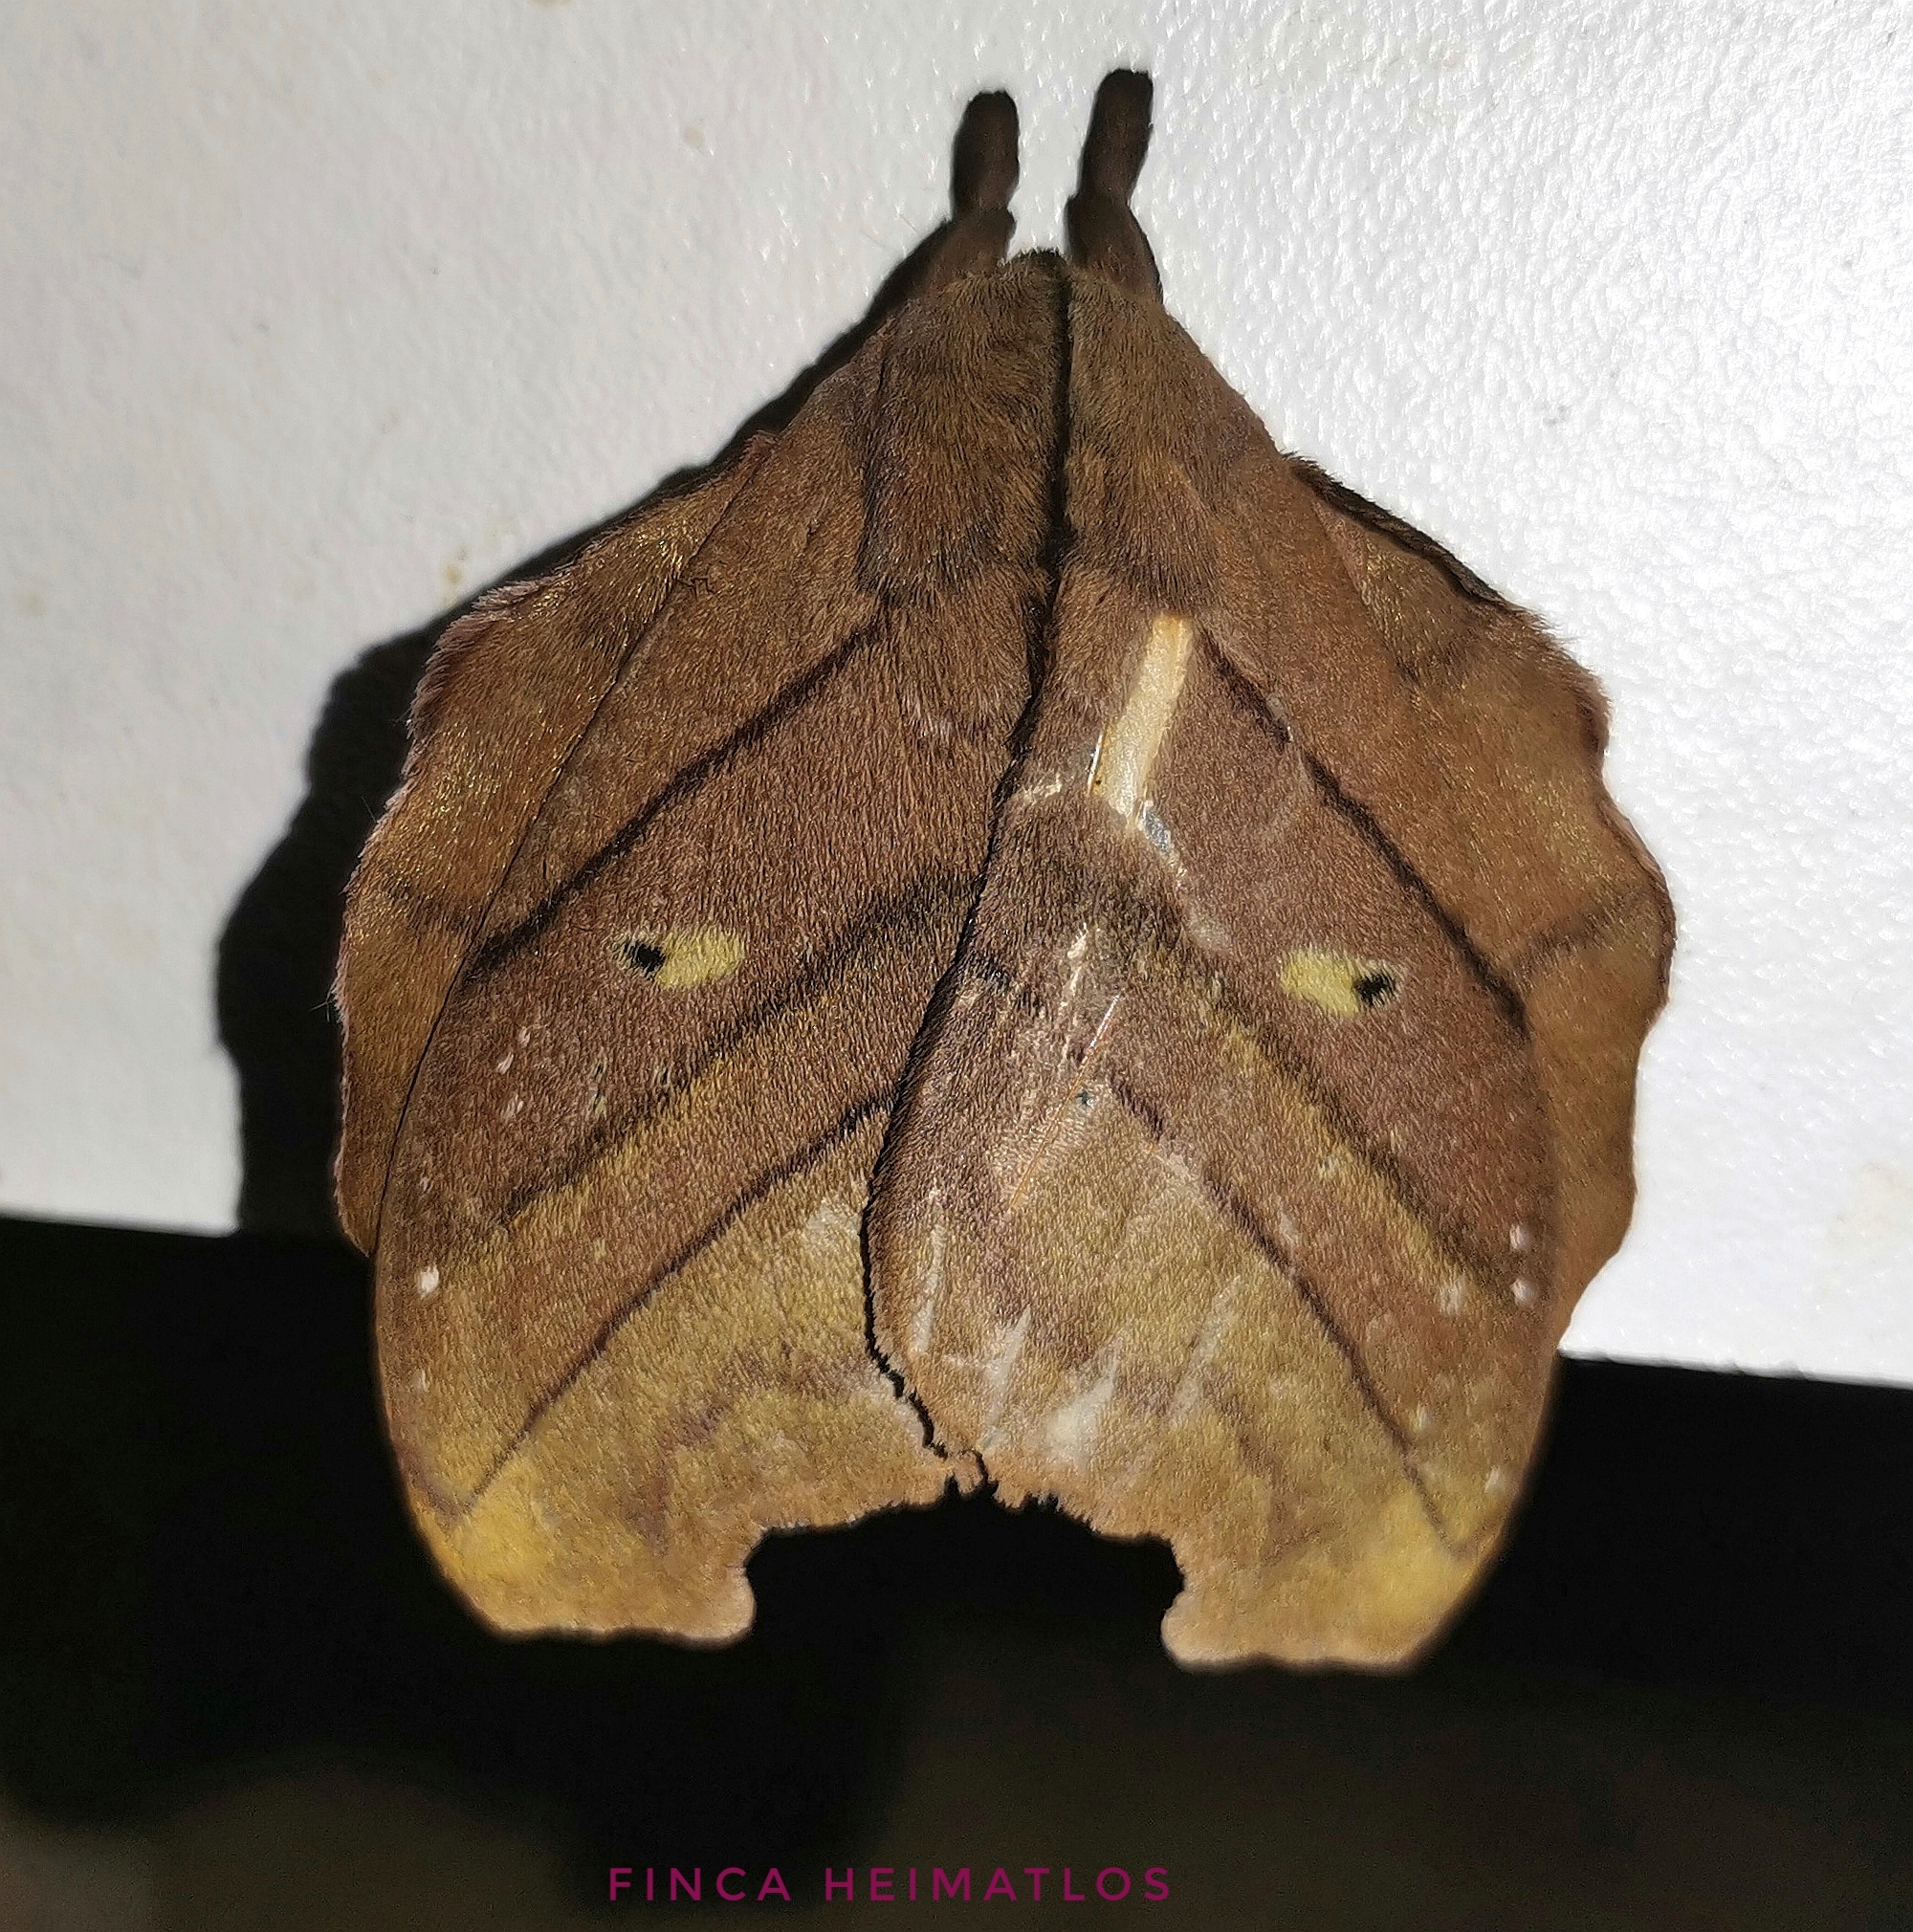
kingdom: Animalia
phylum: Arthropoda
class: Insecta
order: Lepidoptera
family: Saturniidae
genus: Hyperchiria
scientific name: Hyperchiria nausica
